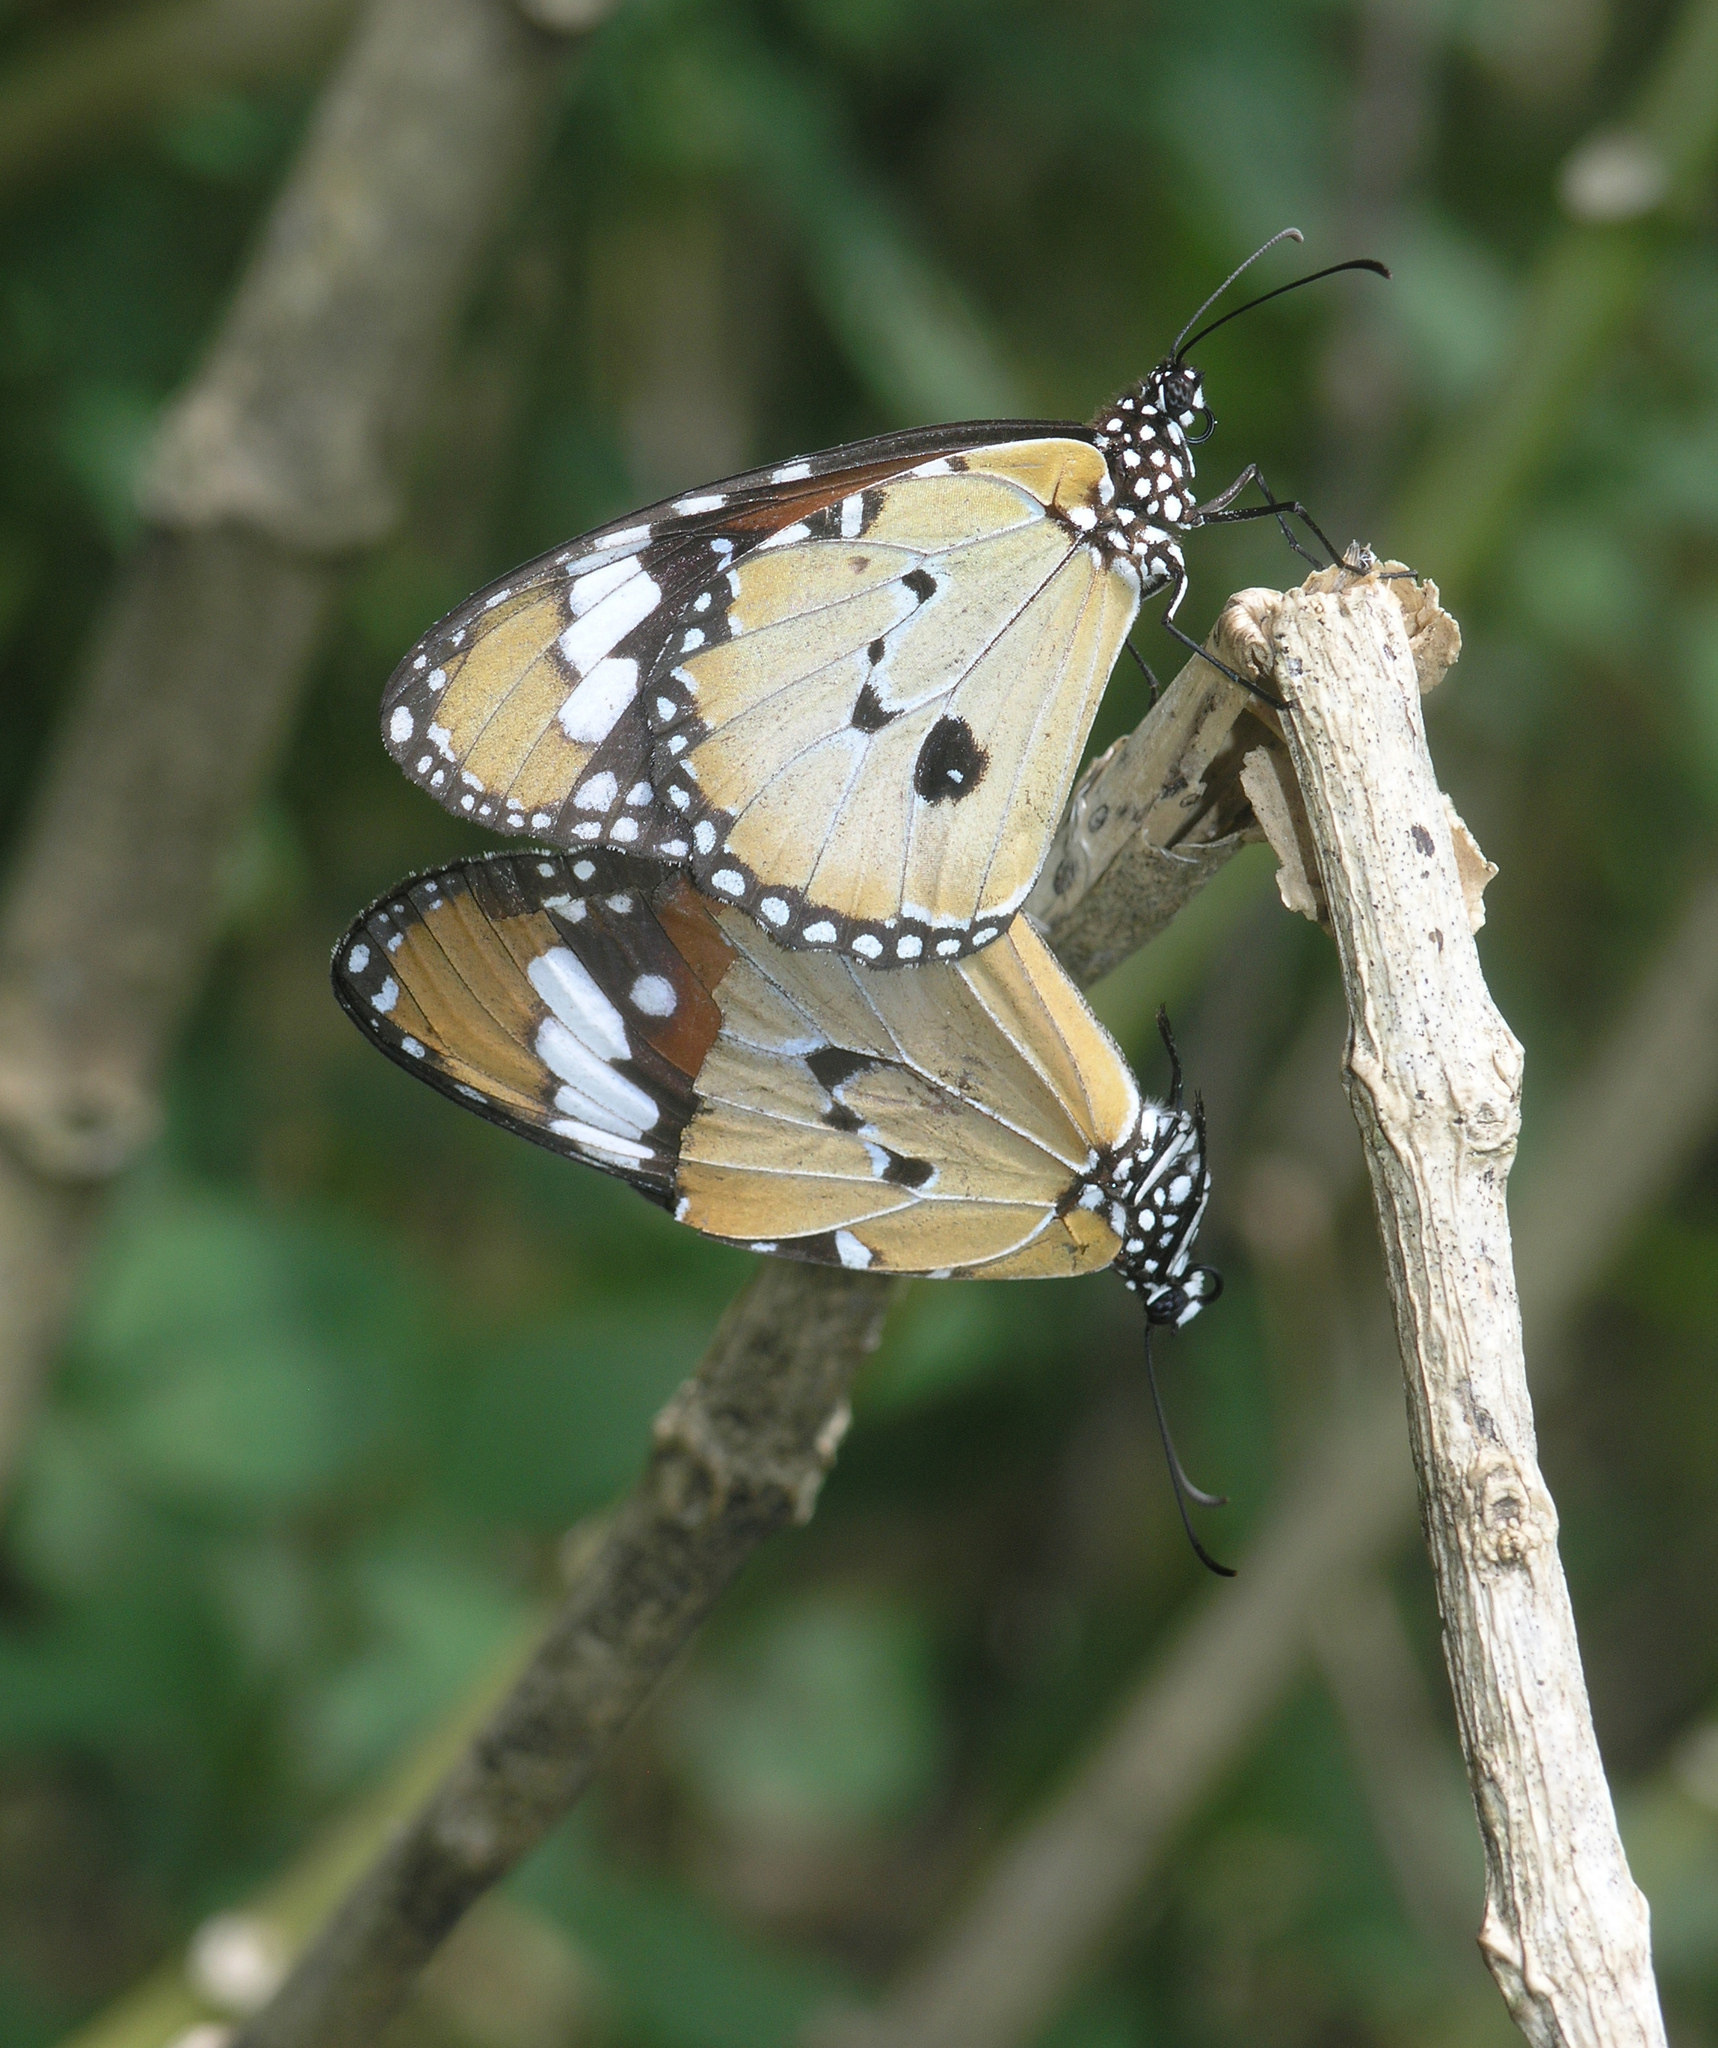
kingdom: Animalia
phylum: Arthropoda
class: Insecta
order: Lepidoptera
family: Nymphalidae
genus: Danaus
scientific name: Danaus chrysippus
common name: Plain tiger
